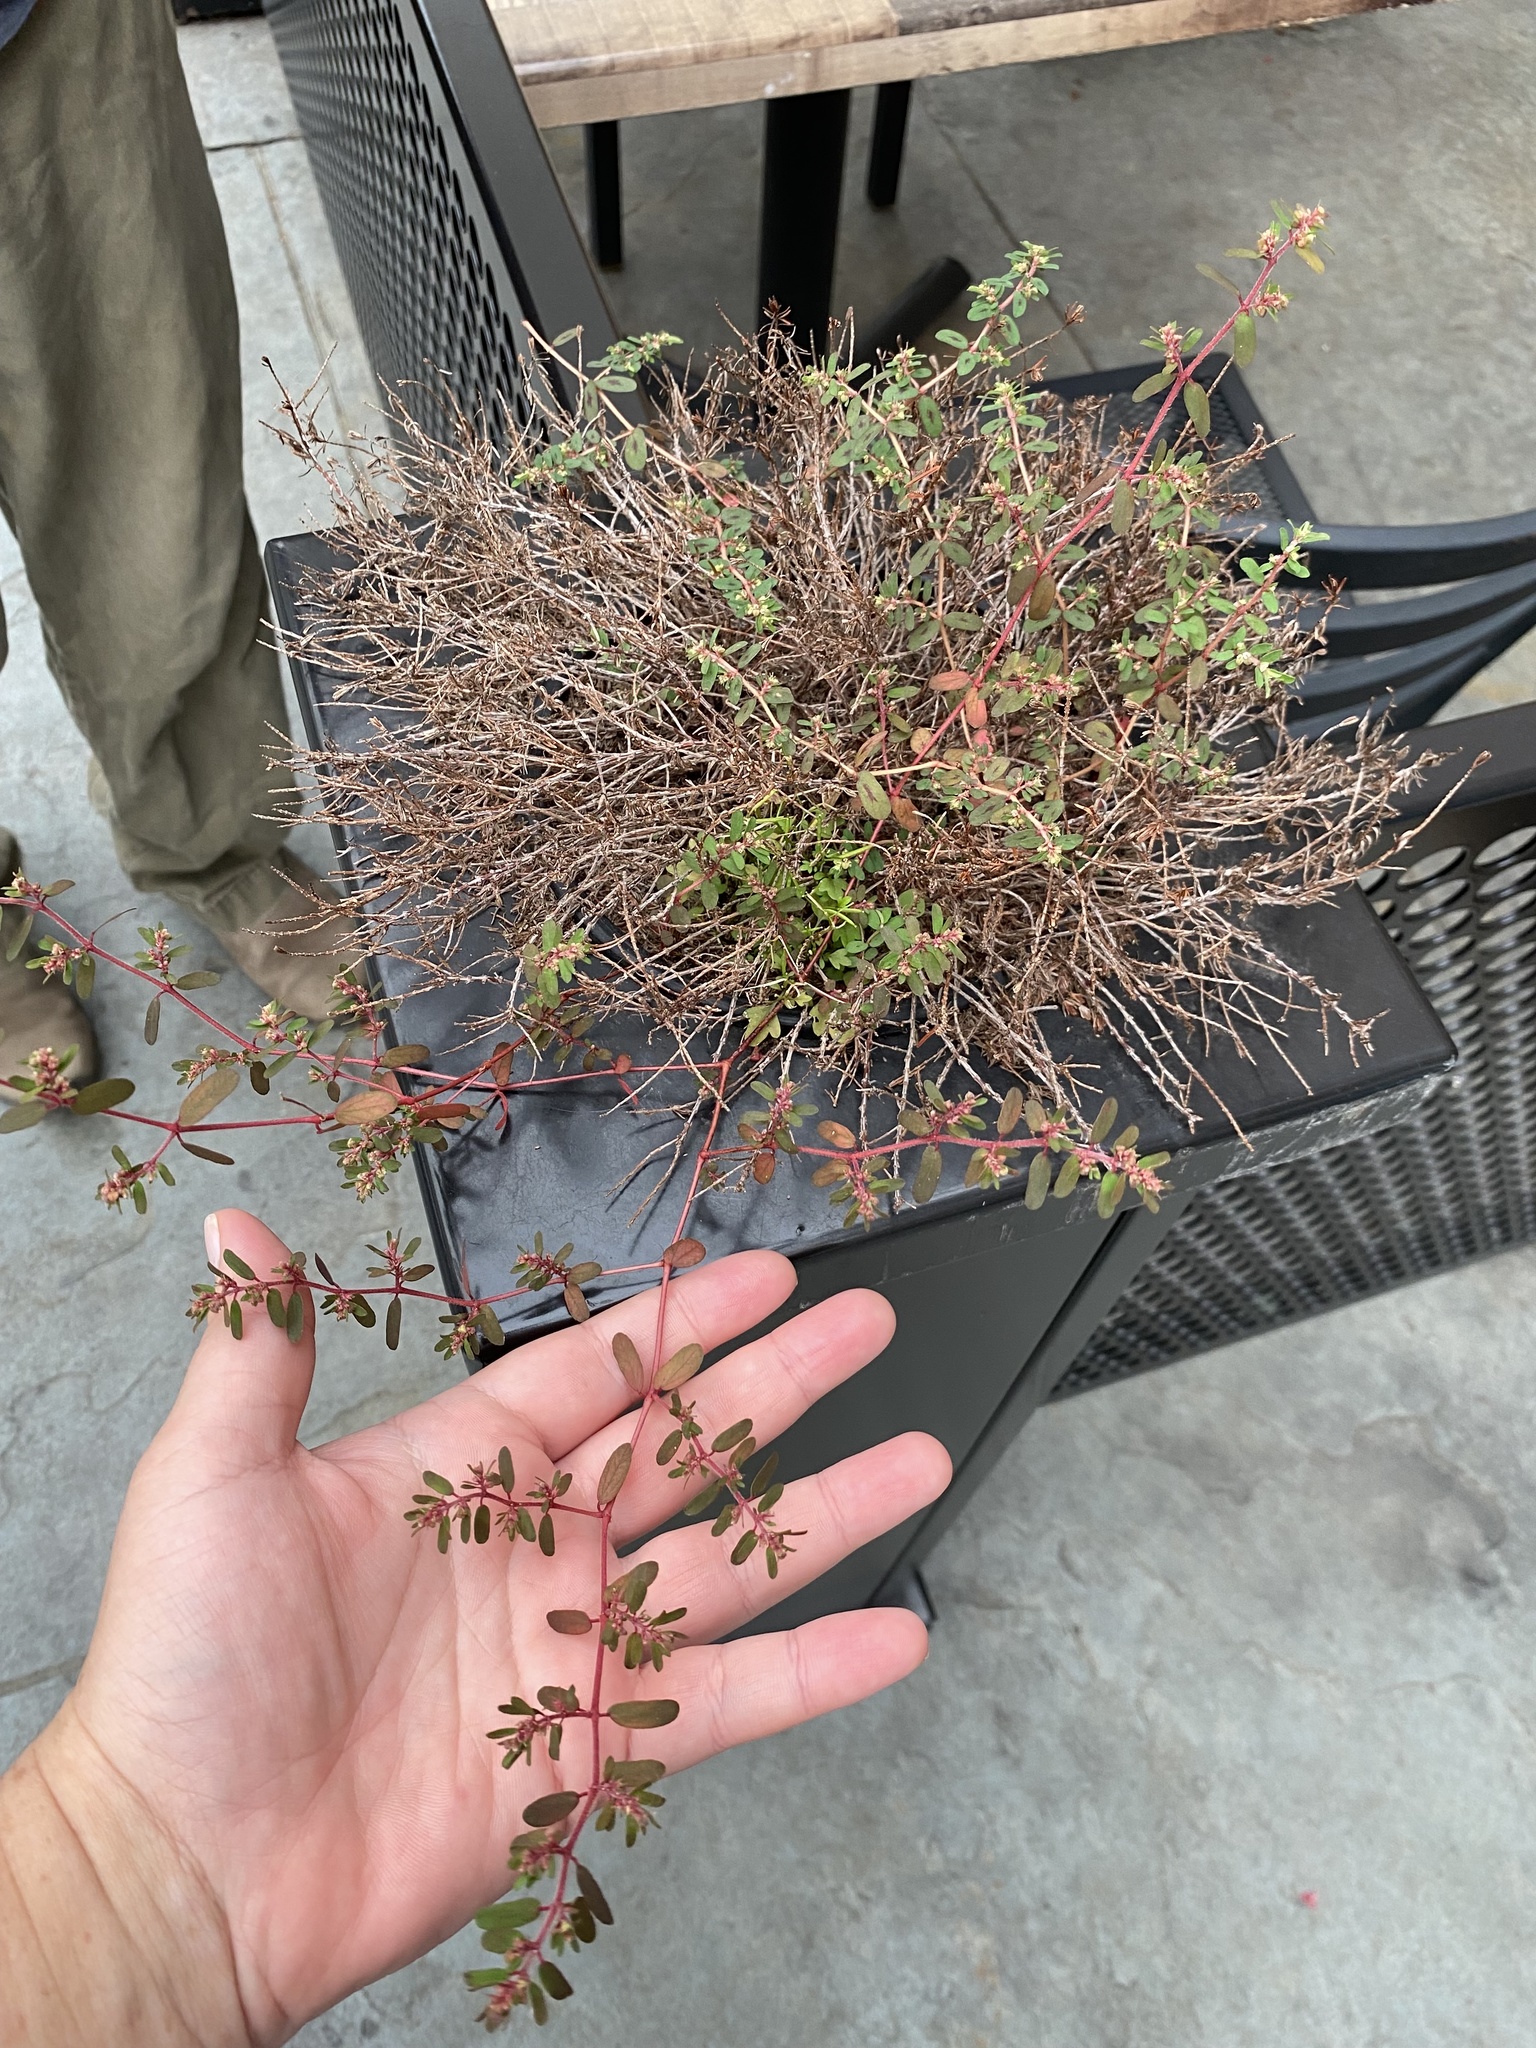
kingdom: Plantae
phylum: Tracheophyta
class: Magnoliopsida
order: Malpighiales
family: Euphorbiaceae
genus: Euphorbia
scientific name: Euphorbia maculata
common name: Spotted spurge
